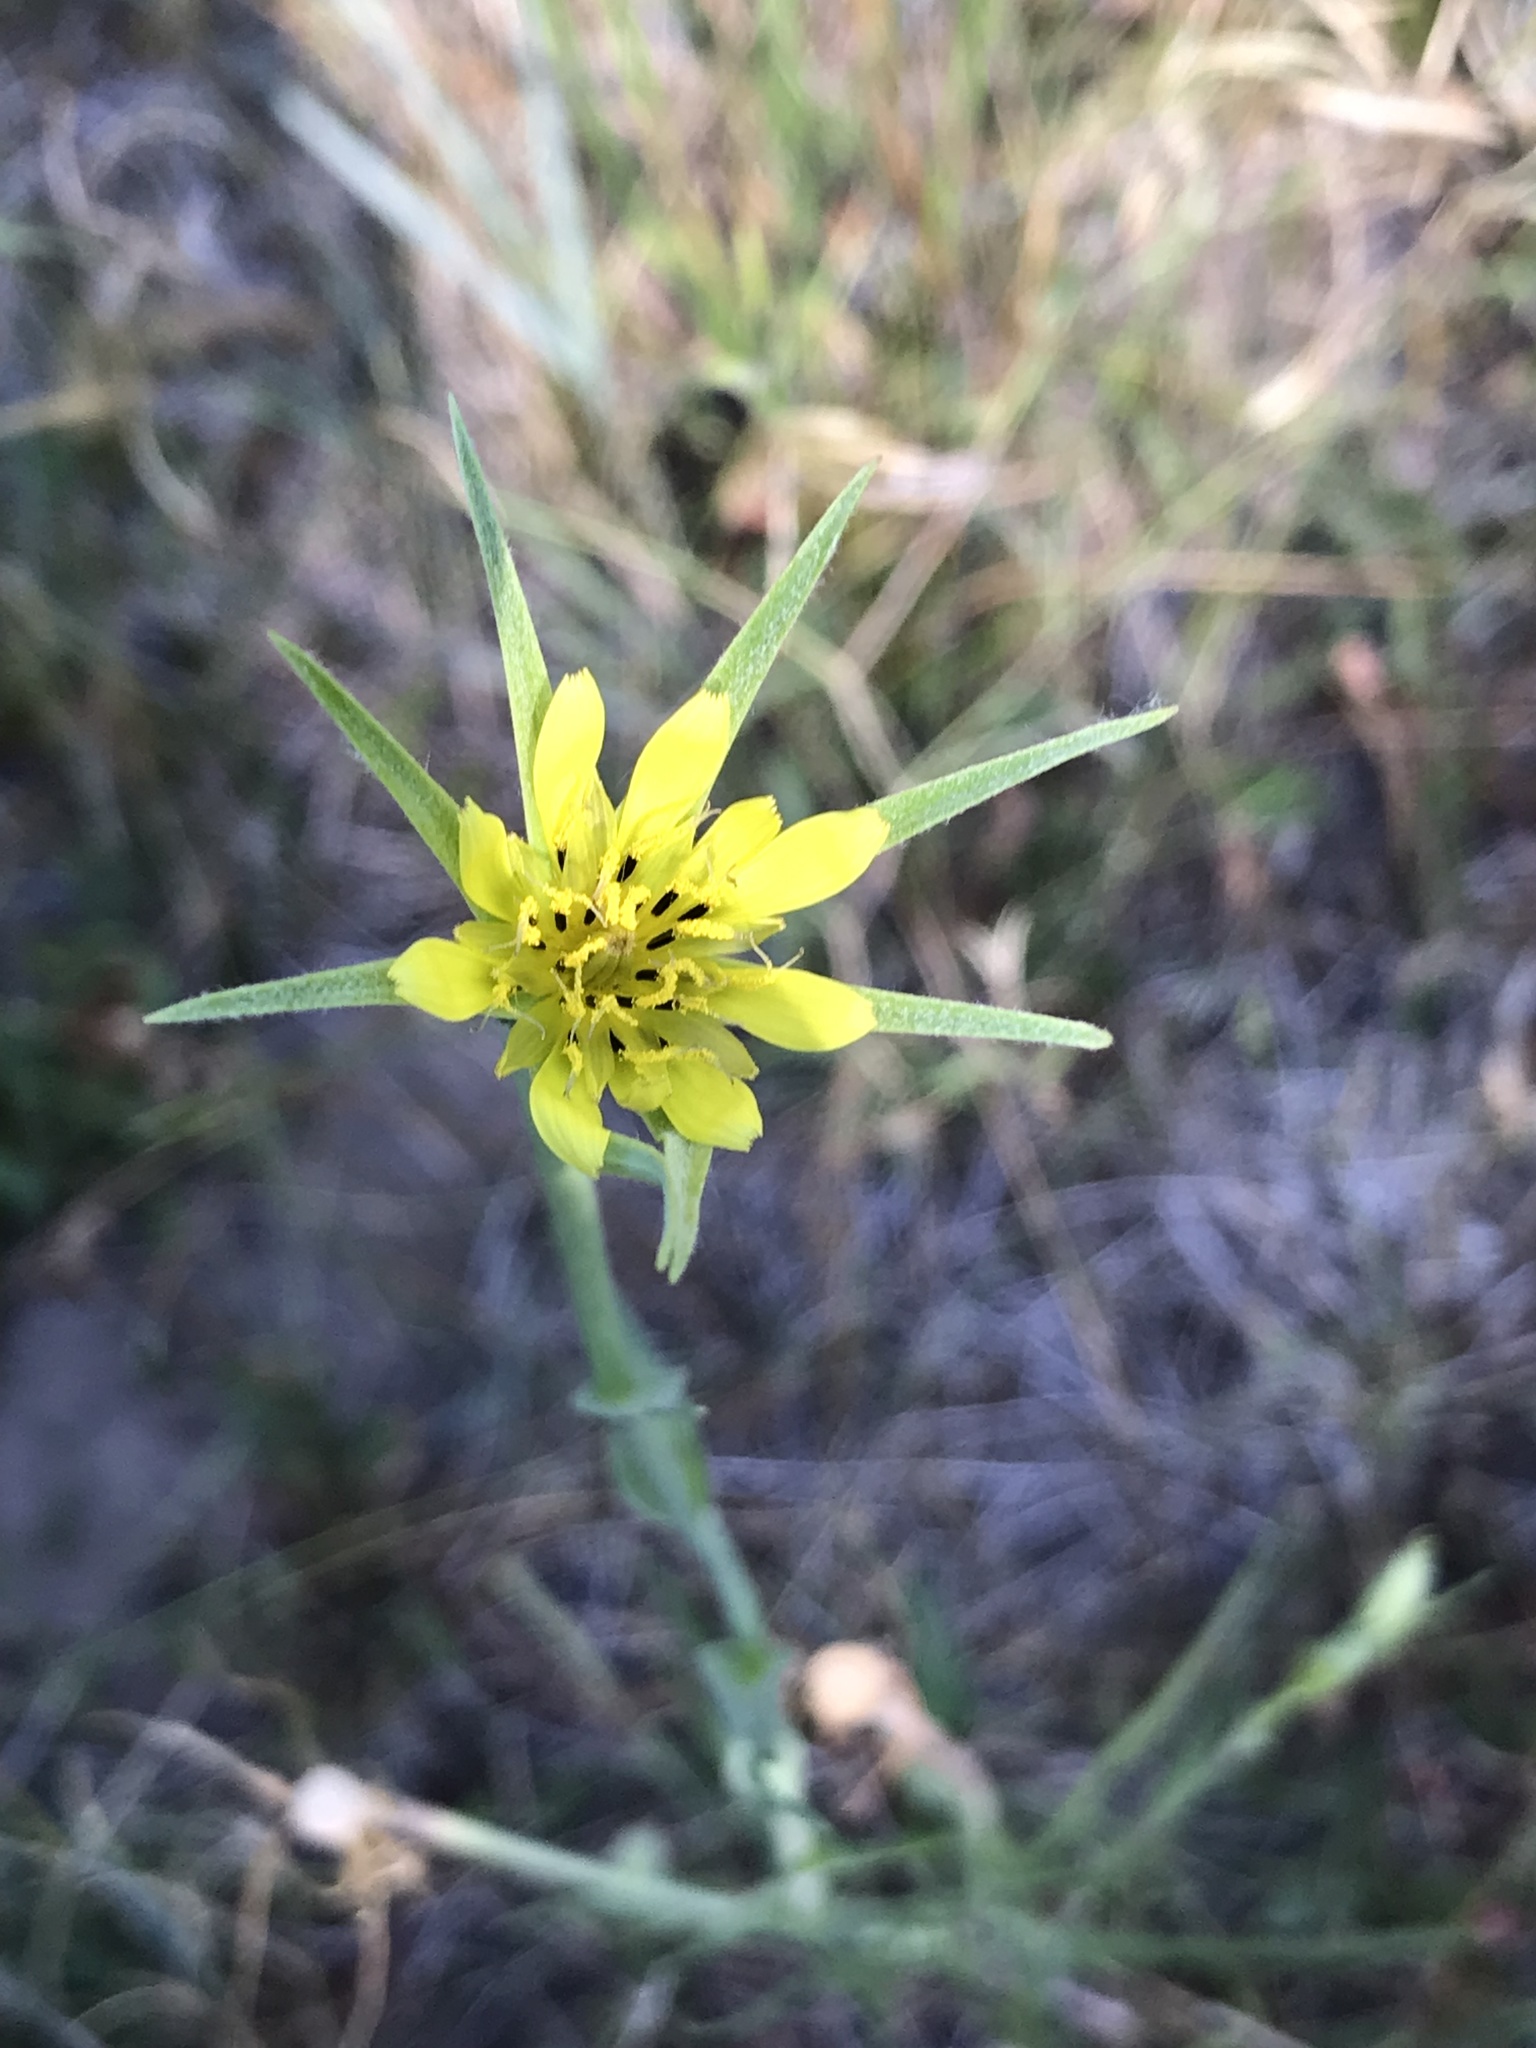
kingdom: Plantae
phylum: Tracheophyta
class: Magnoliopsida
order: Asterales
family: Asteraceae
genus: Tragopogon
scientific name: Tragopogon dubius
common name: Yellow salsify
